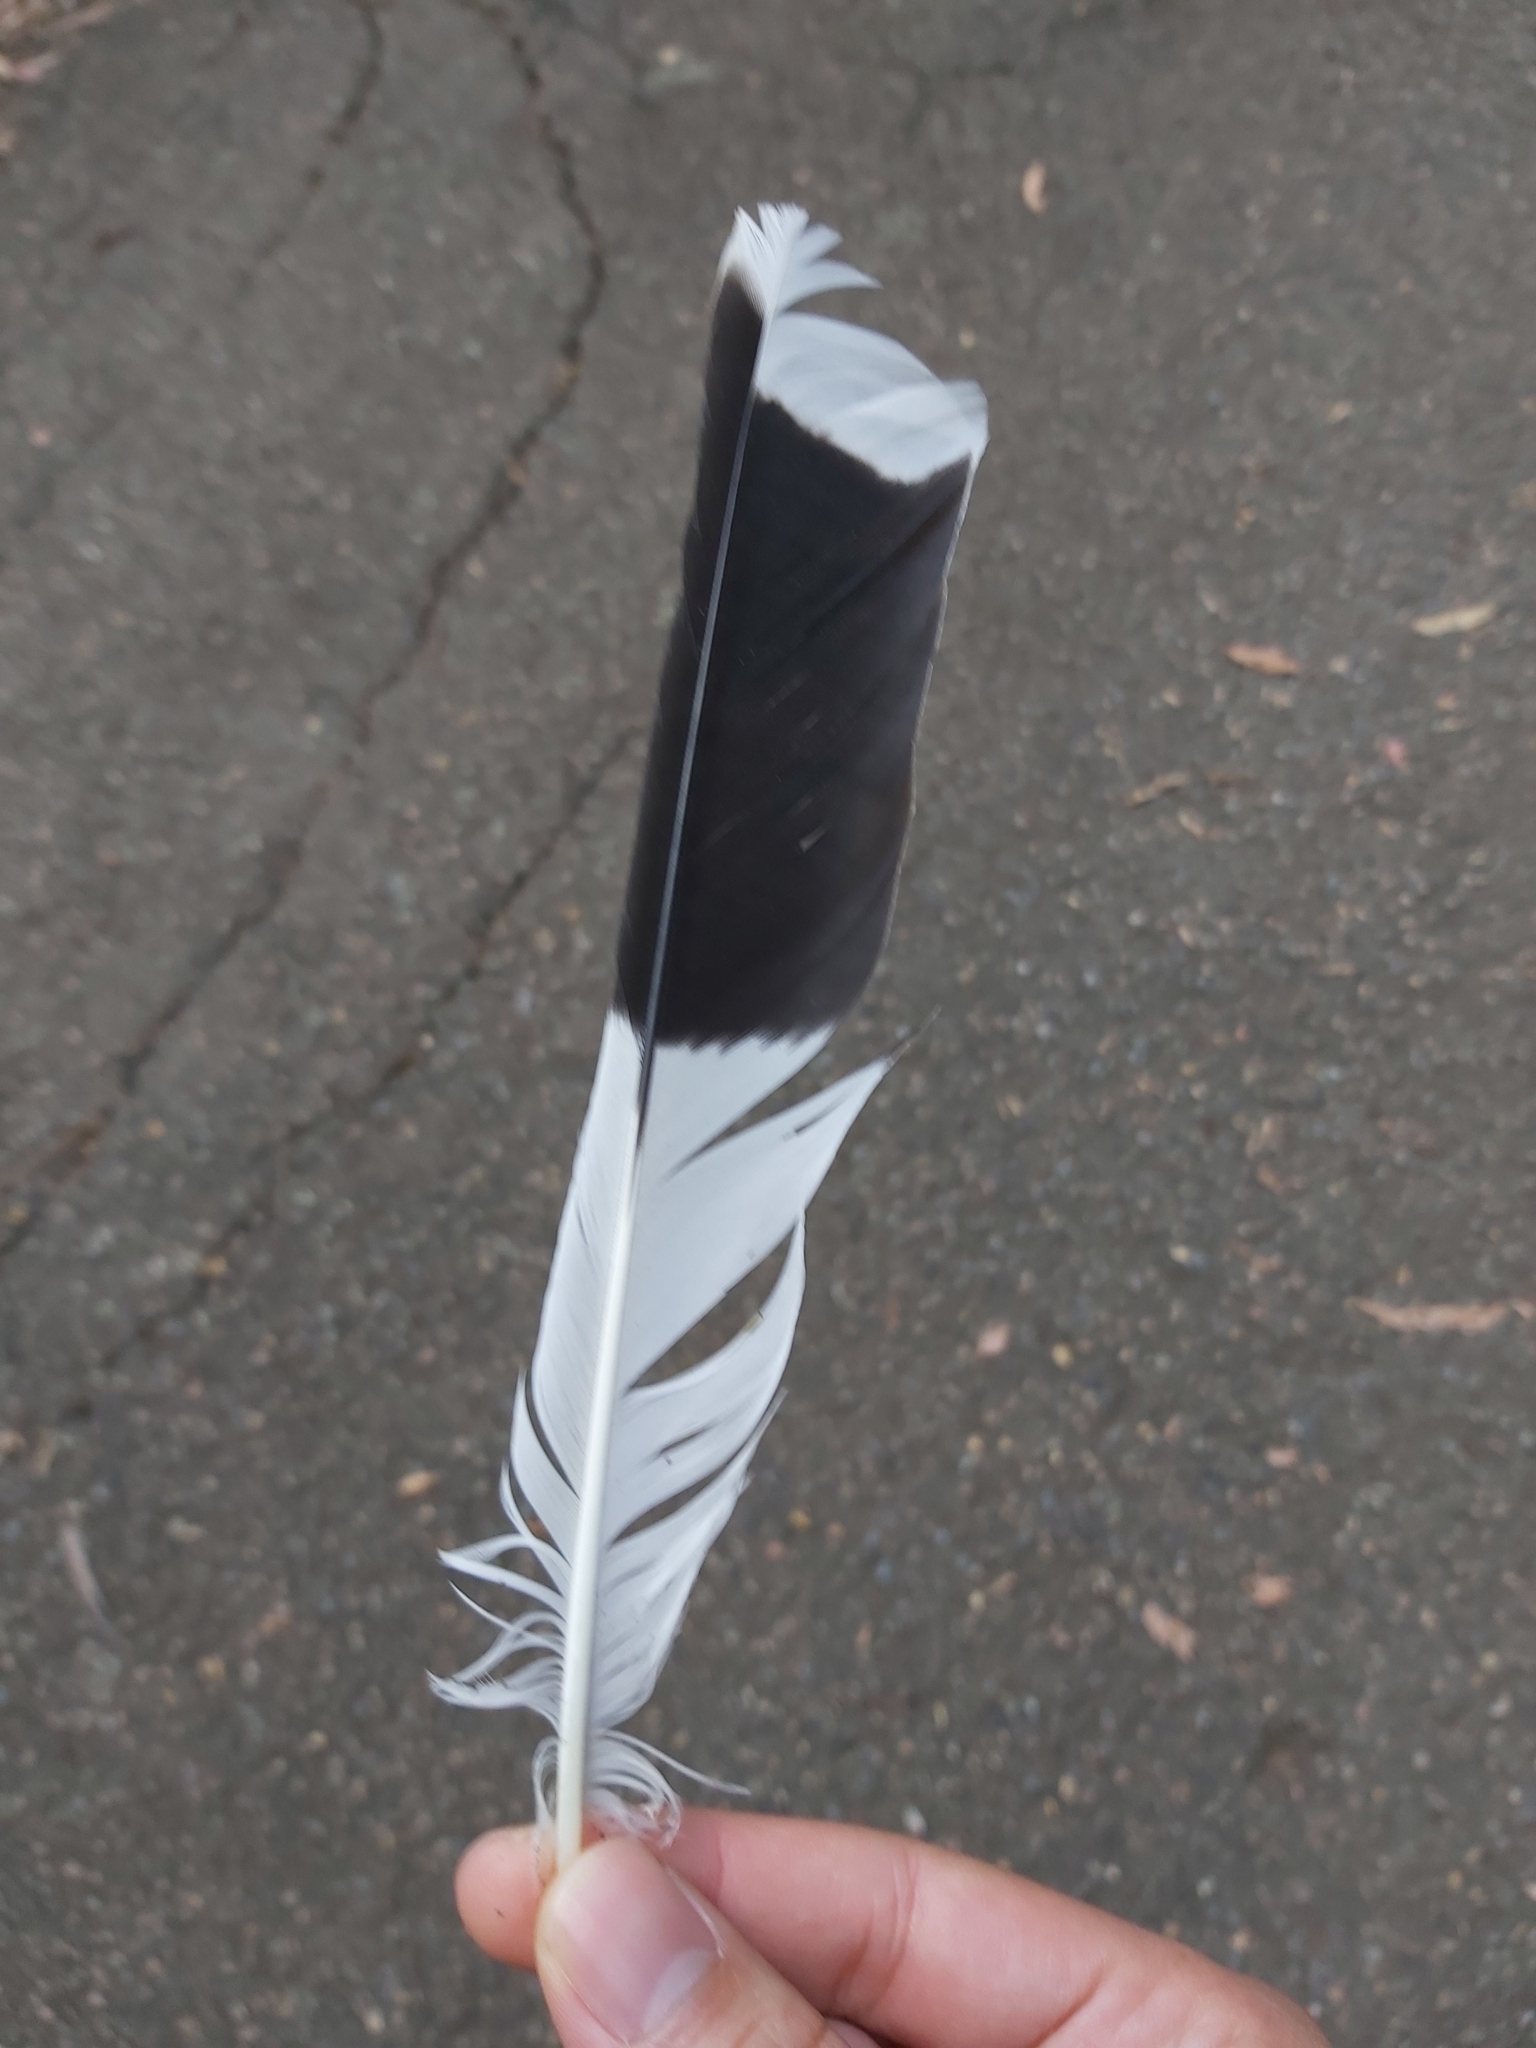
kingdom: Animalia
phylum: Chordata
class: Aves
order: Passeriformes
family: Cracticidae
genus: Strepera
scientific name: Strepera graculina
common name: Pied currawong
